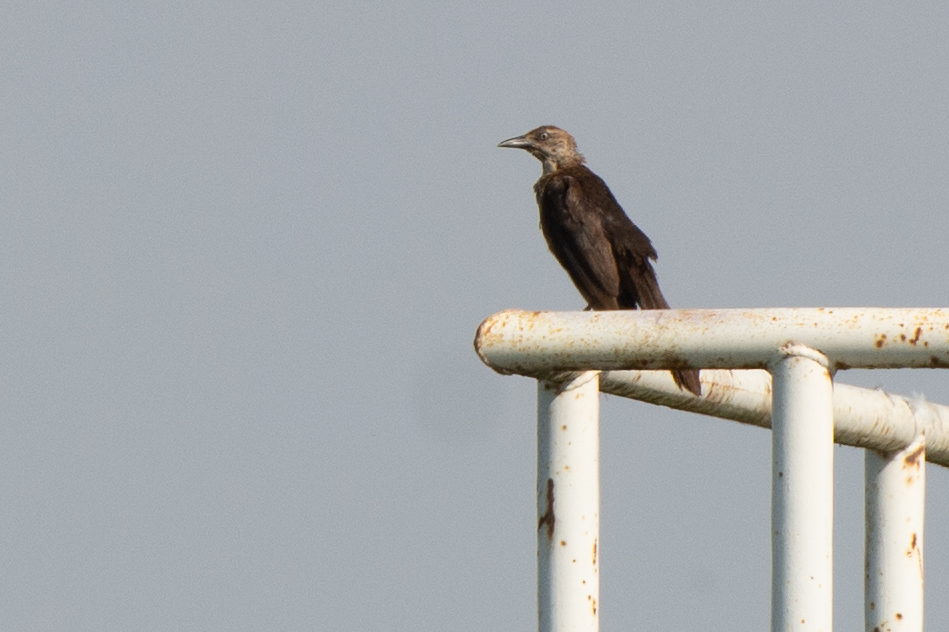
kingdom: Animalia
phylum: Chordata
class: Aves
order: Passeriformes
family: Icteridae
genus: Quiscalus
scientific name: Quiscalus mexicanus
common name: Great-tailed grackle
